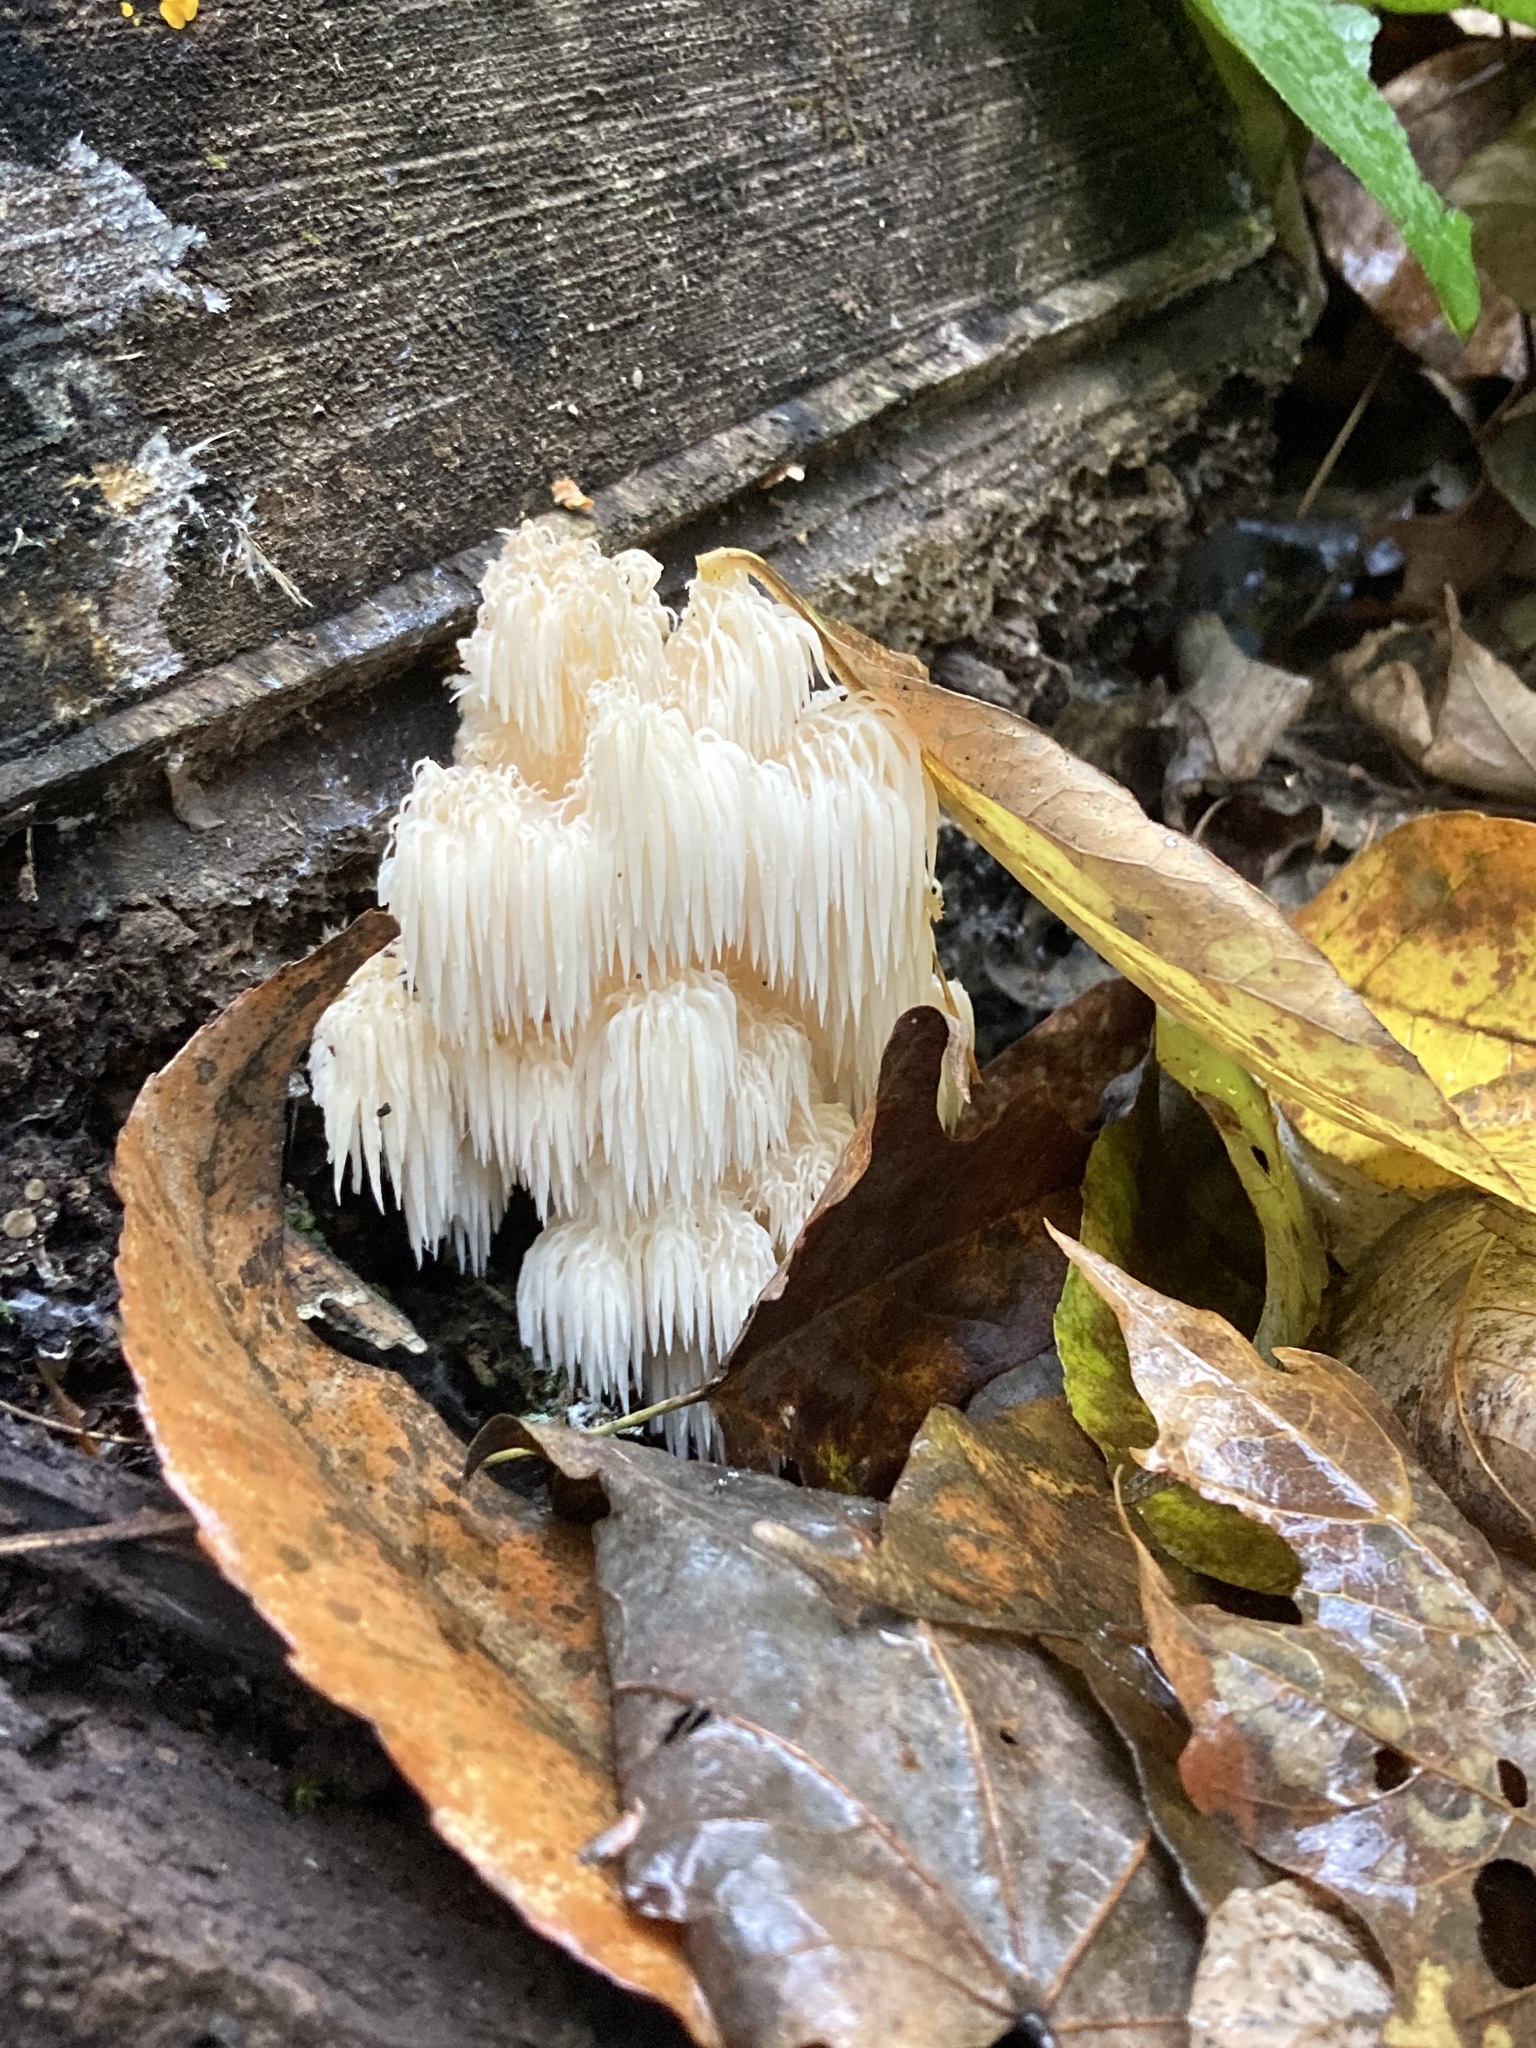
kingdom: Fungi
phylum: Basidiomycota
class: Agaricomycetes
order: Russulales
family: Hericiaceae
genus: Hericium
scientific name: Hericium americanum
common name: Bear's head tooth
